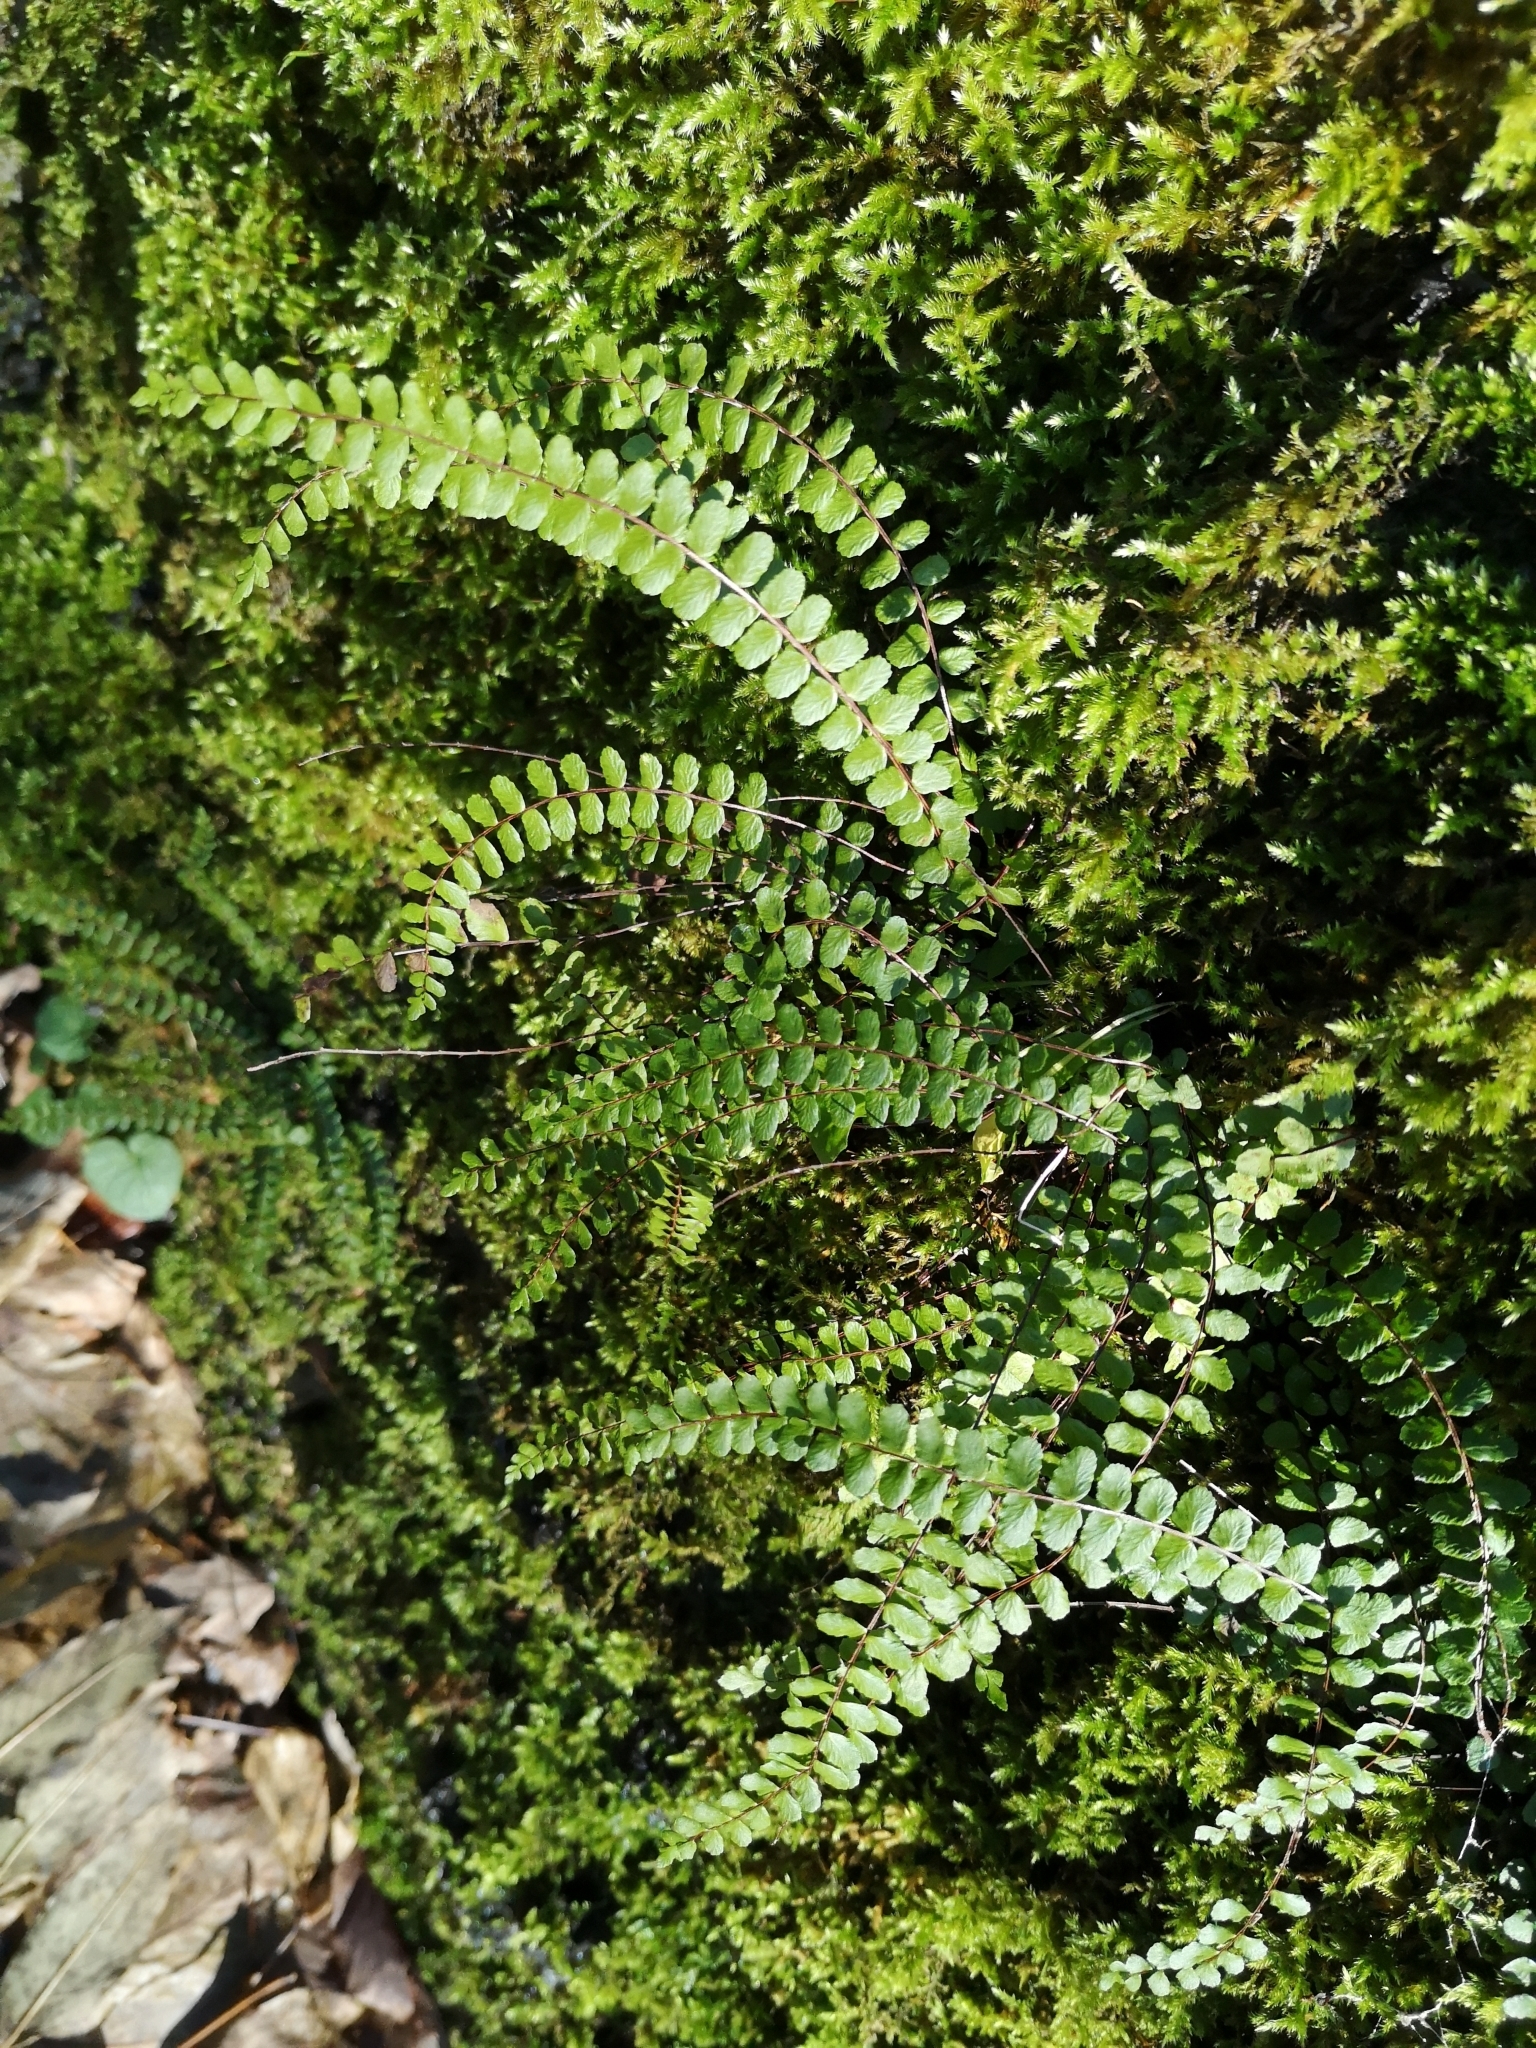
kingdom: Plantae
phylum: Tracheophyta
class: Polypodiopsida
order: Polypodiales
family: Aspleniaceae
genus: Asplenium
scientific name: Asplenium trichomanes
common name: Maidenhair spleenwort
